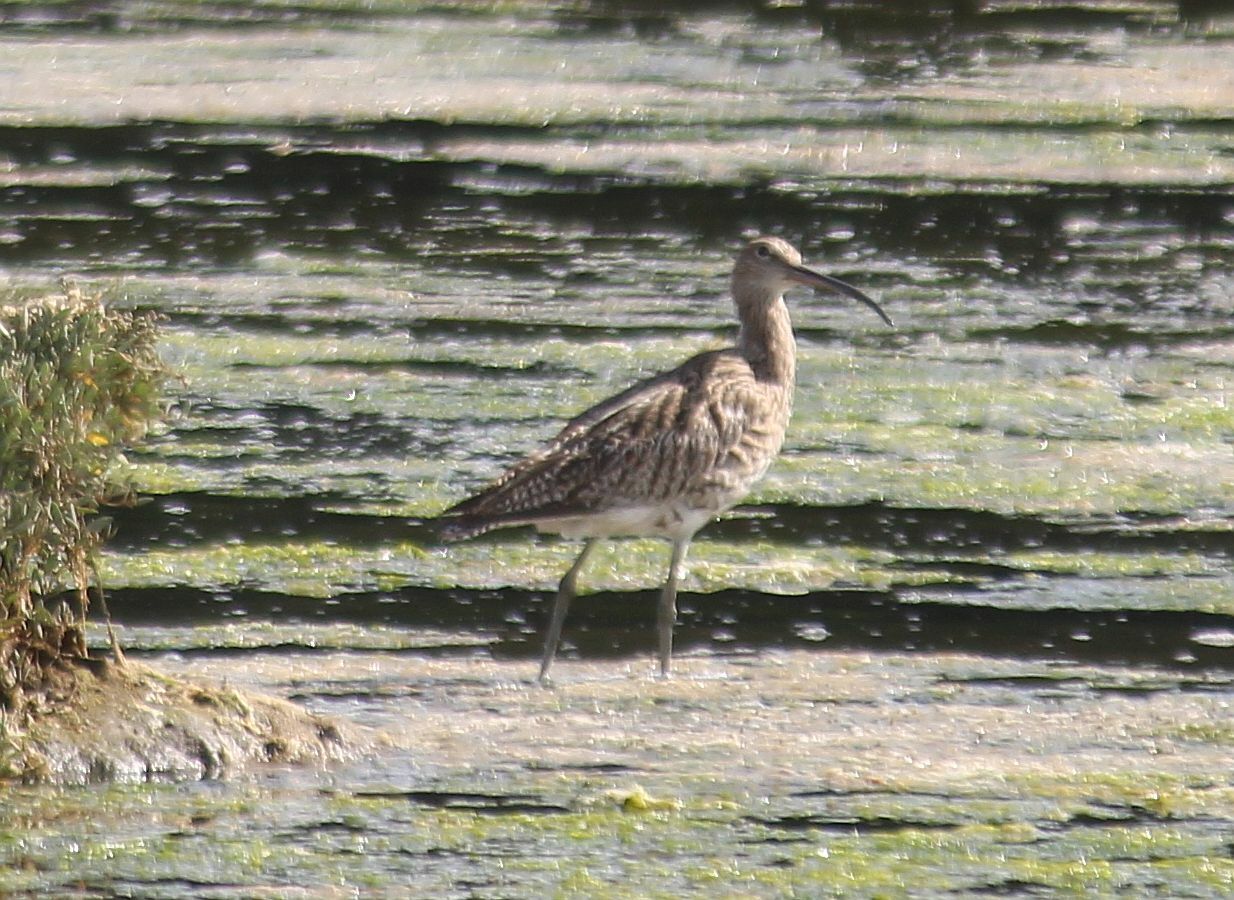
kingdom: Animalia
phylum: Chordata
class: Aves
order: Charadriiformes
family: Scolopacidae
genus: Numenius
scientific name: Numenius arquata
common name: Eurasian curlew
